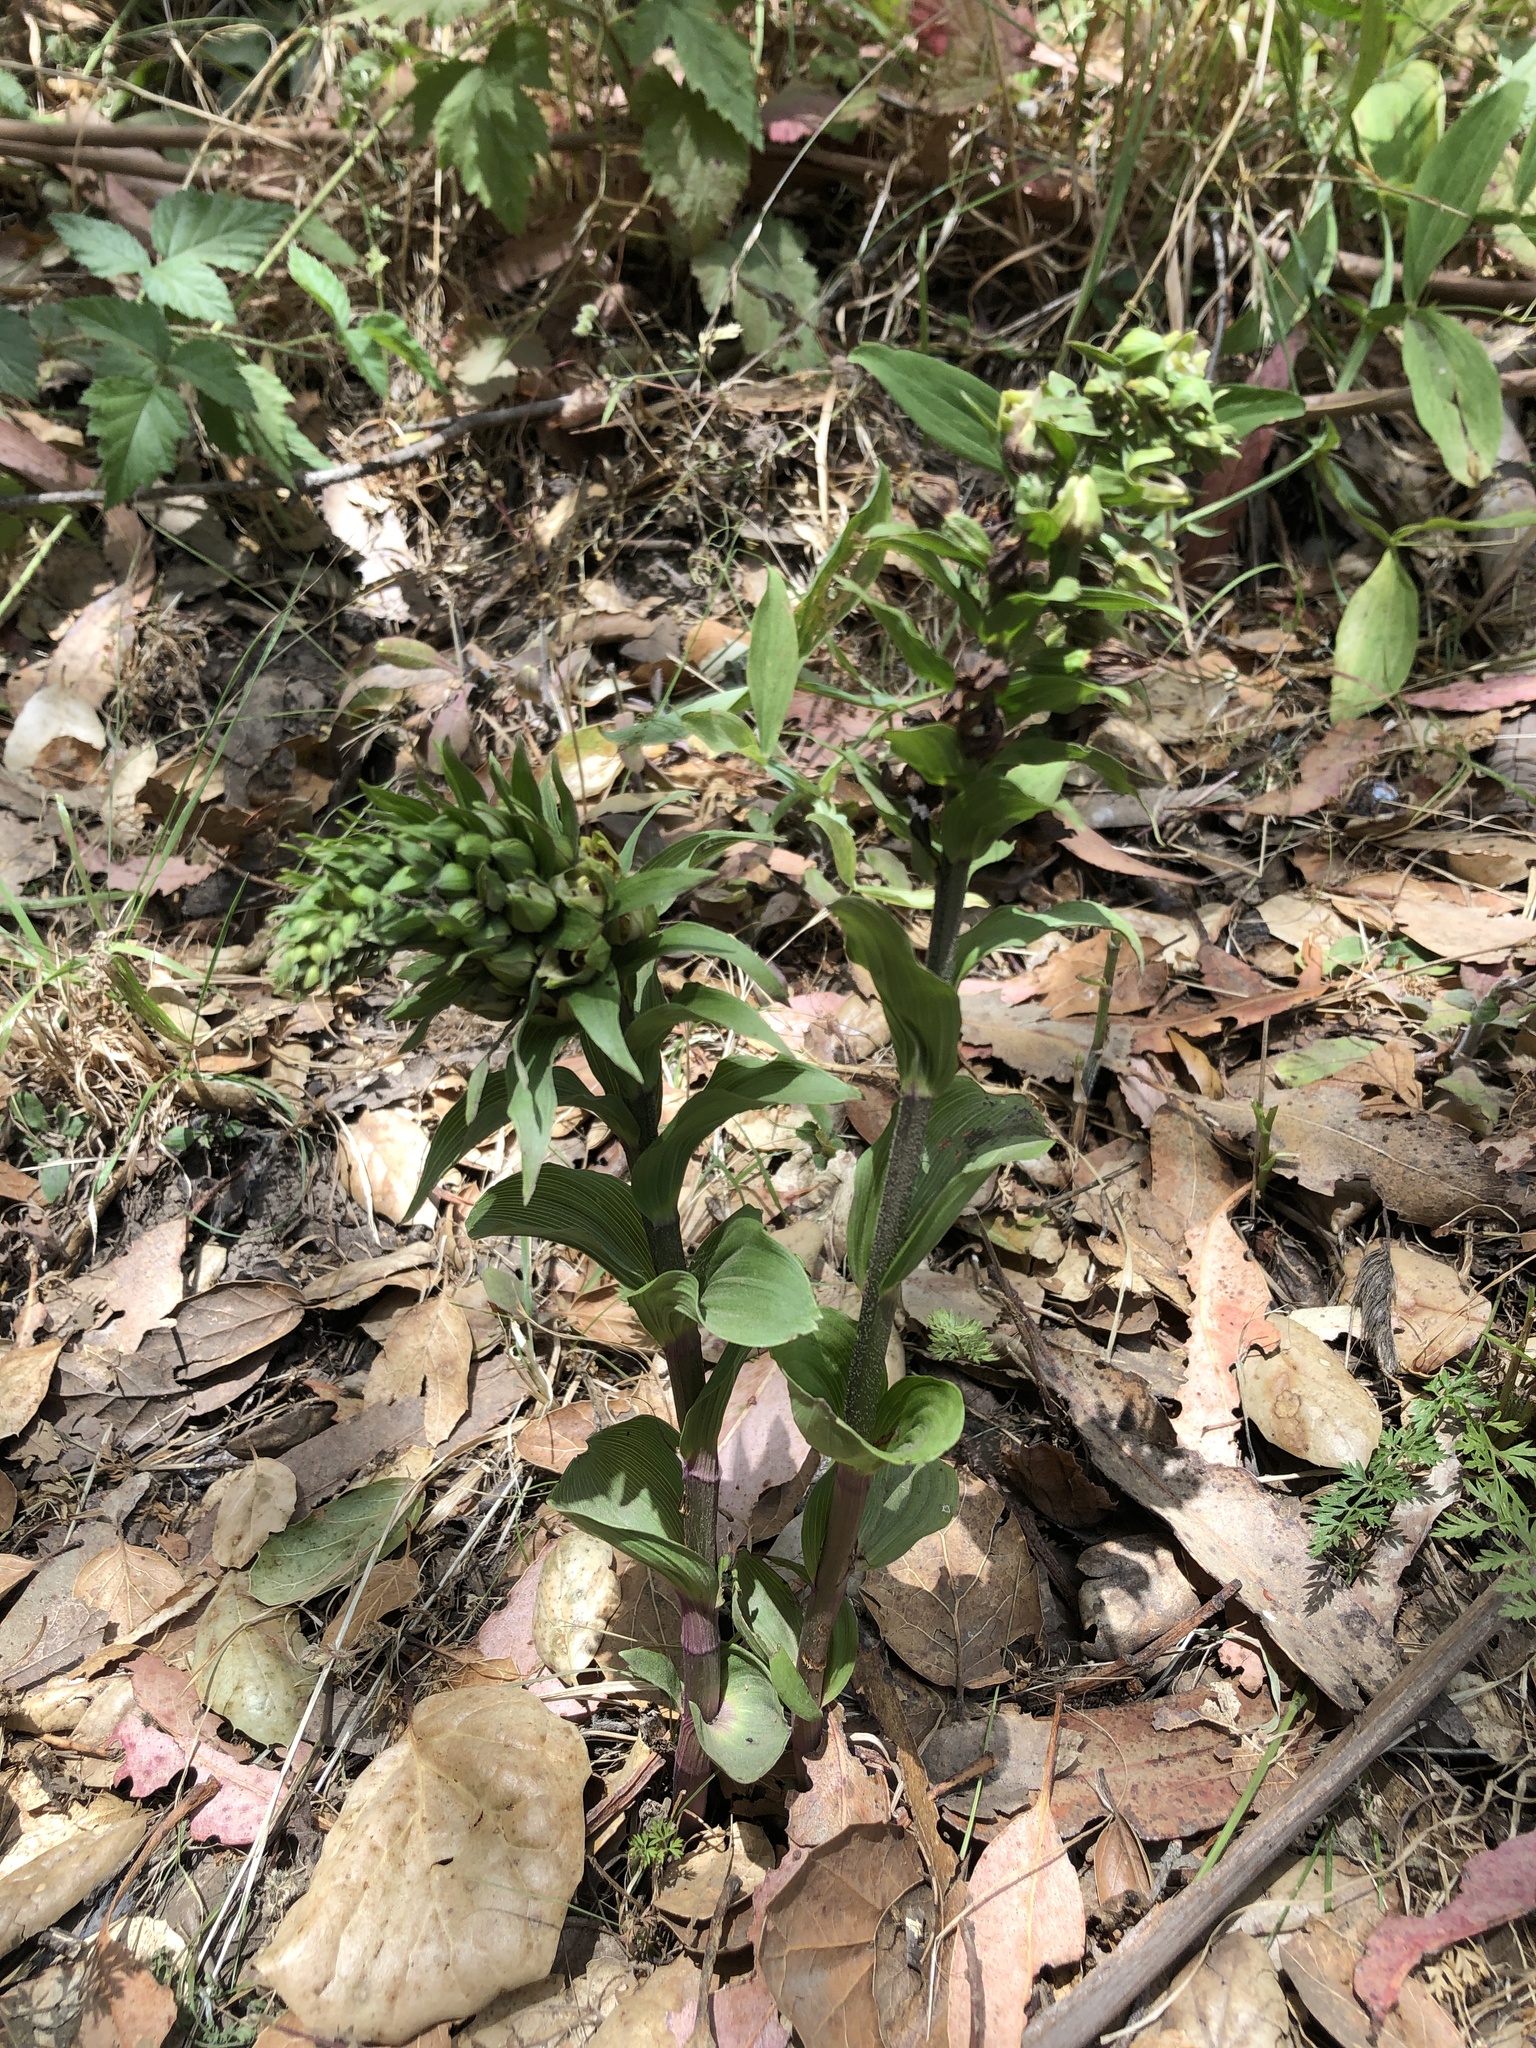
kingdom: Plantae
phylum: Tracheophyta
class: Liliopsida
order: Asparagales
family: Orchidaceae
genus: Epipactis
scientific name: Epipactis helleborine
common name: Broad-leaved helleborine
